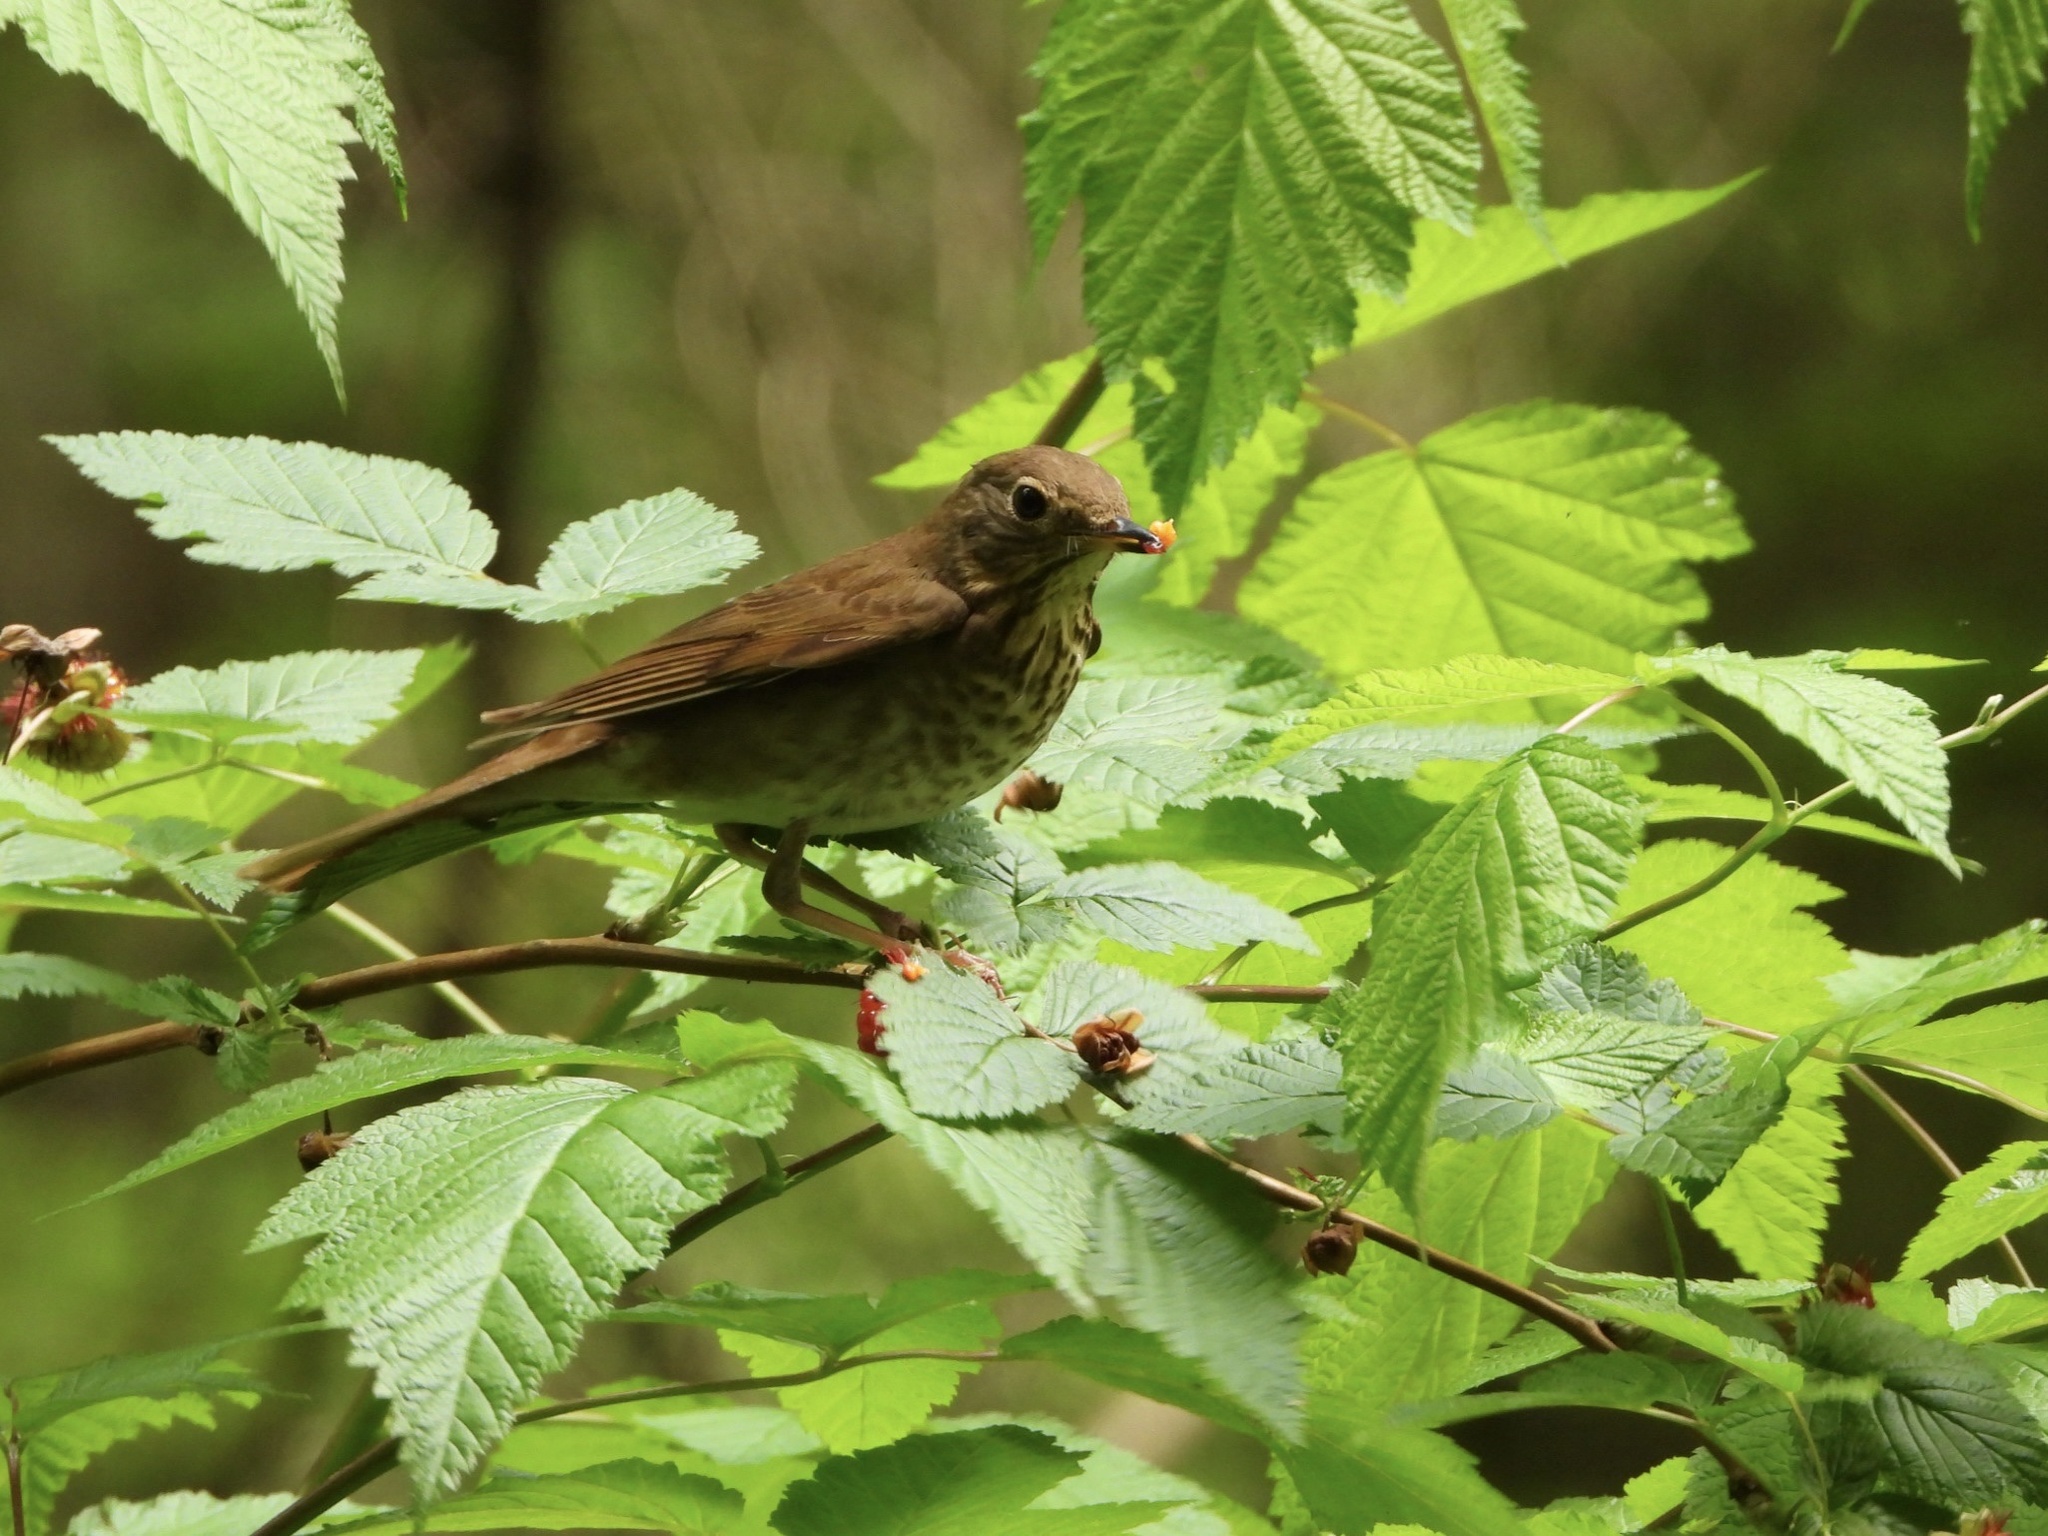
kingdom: Animalia
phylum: Chordata
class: Aves
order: Passeriformes
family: Turdidae
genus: Catharus
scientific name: Catharus ustulatus
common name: Swainson's thrush
